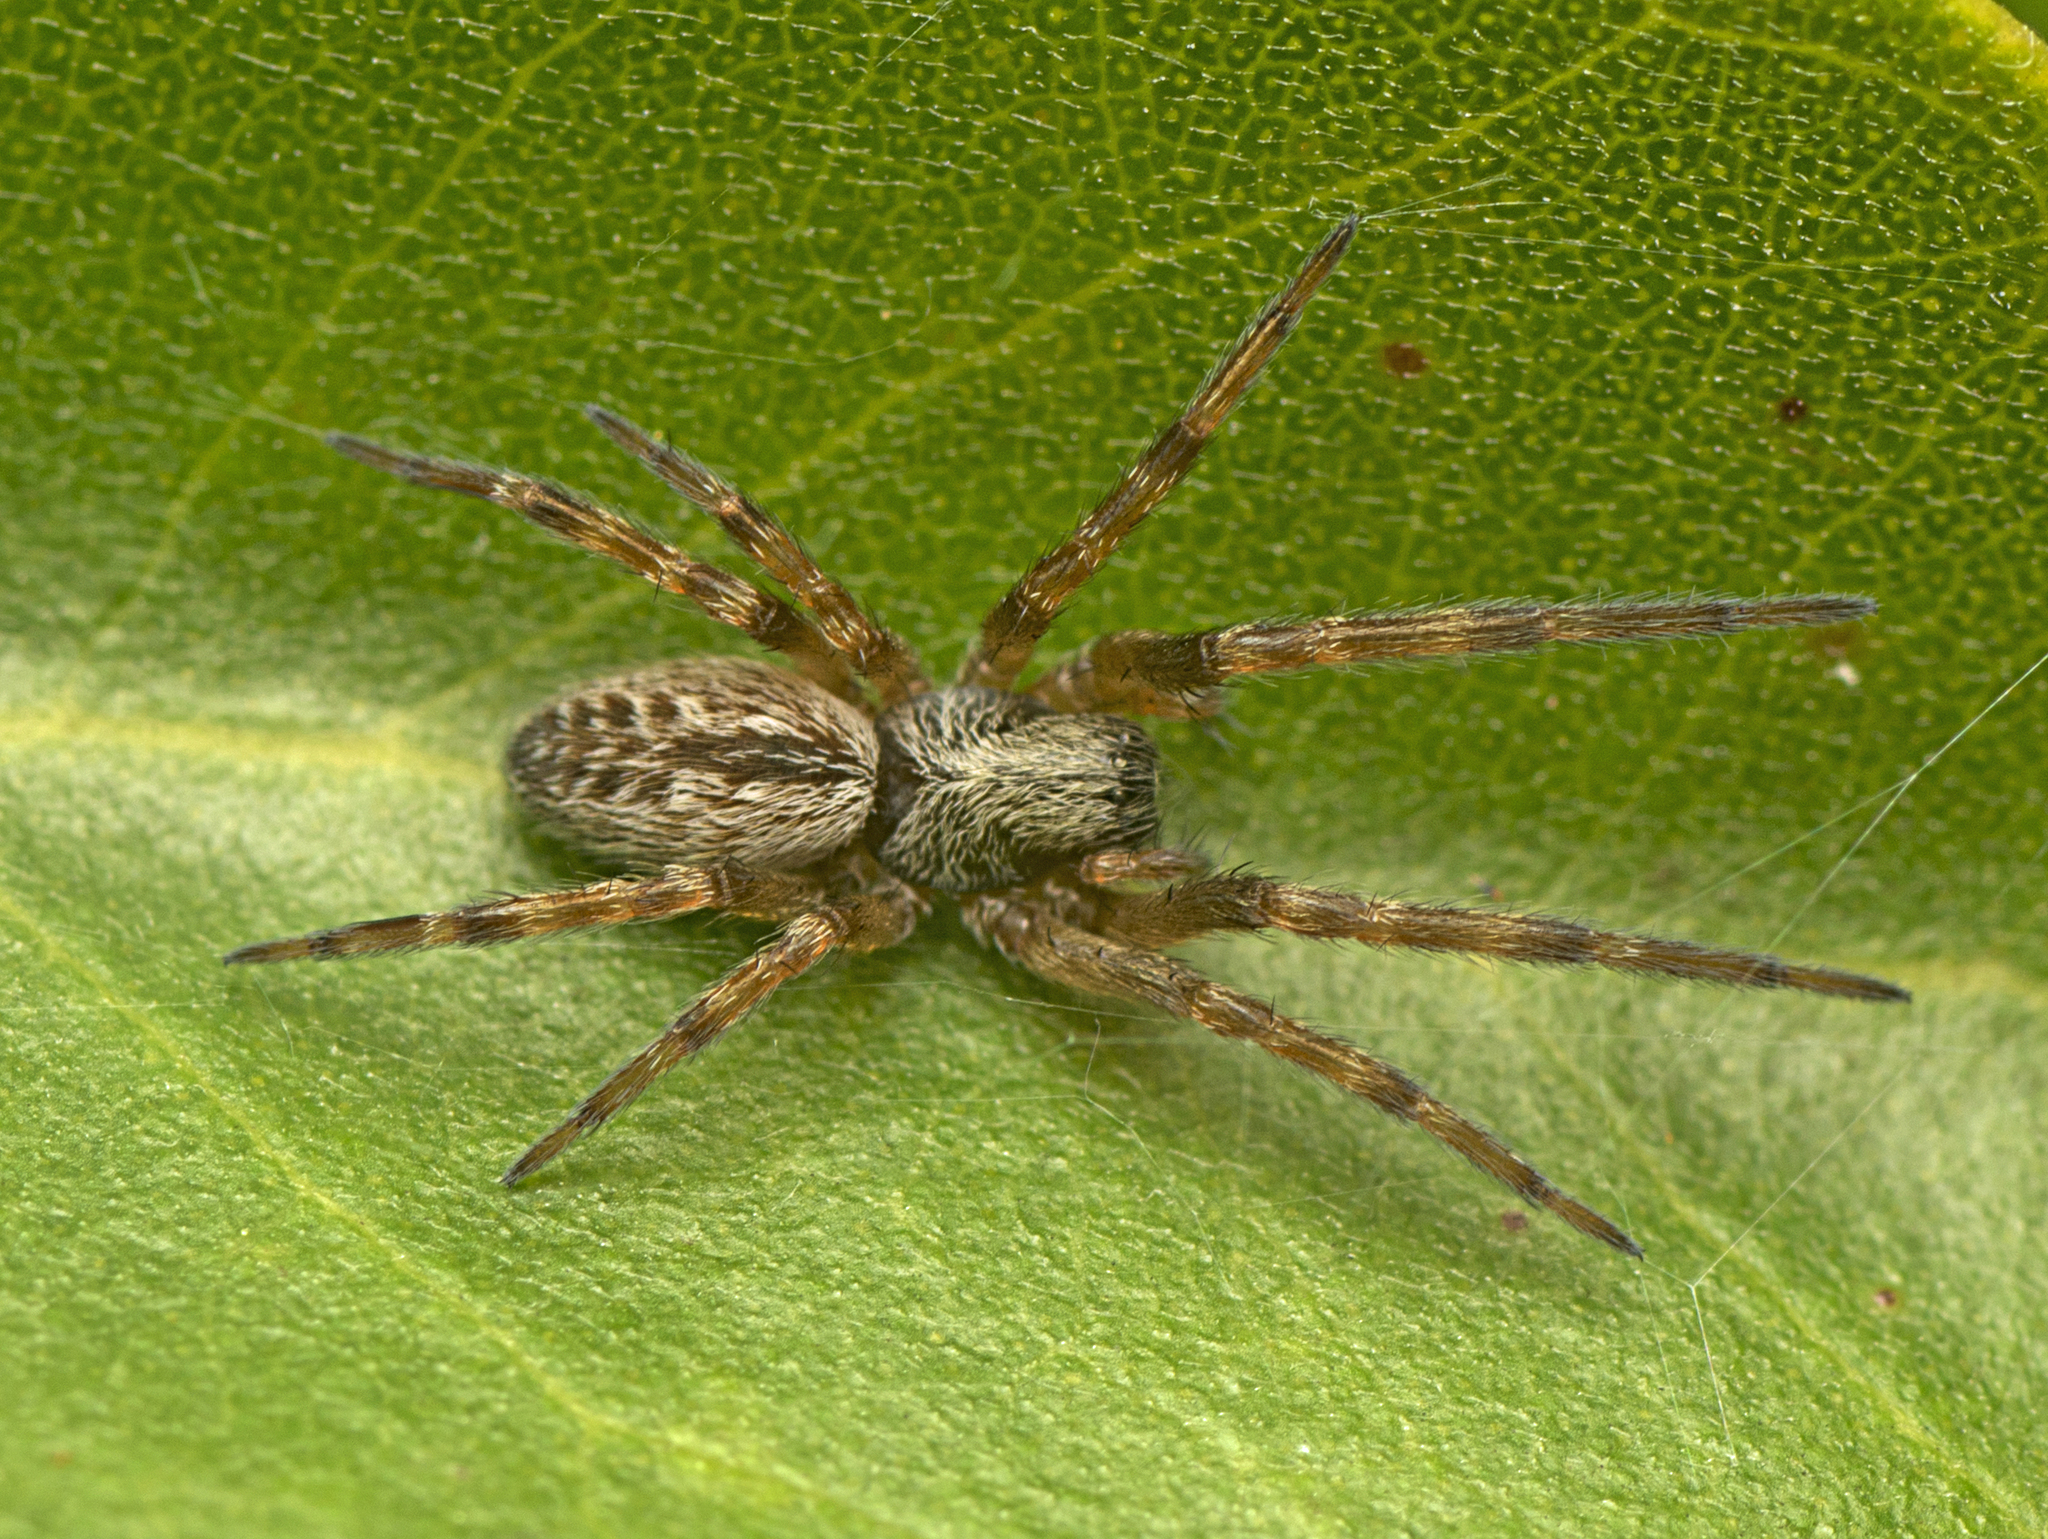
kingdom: Animalia
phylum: Arthropoda
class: Arachnida
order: Araneae
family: Desidae
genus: Badumna
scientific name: Badumna longinqua
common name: Gray house spider
